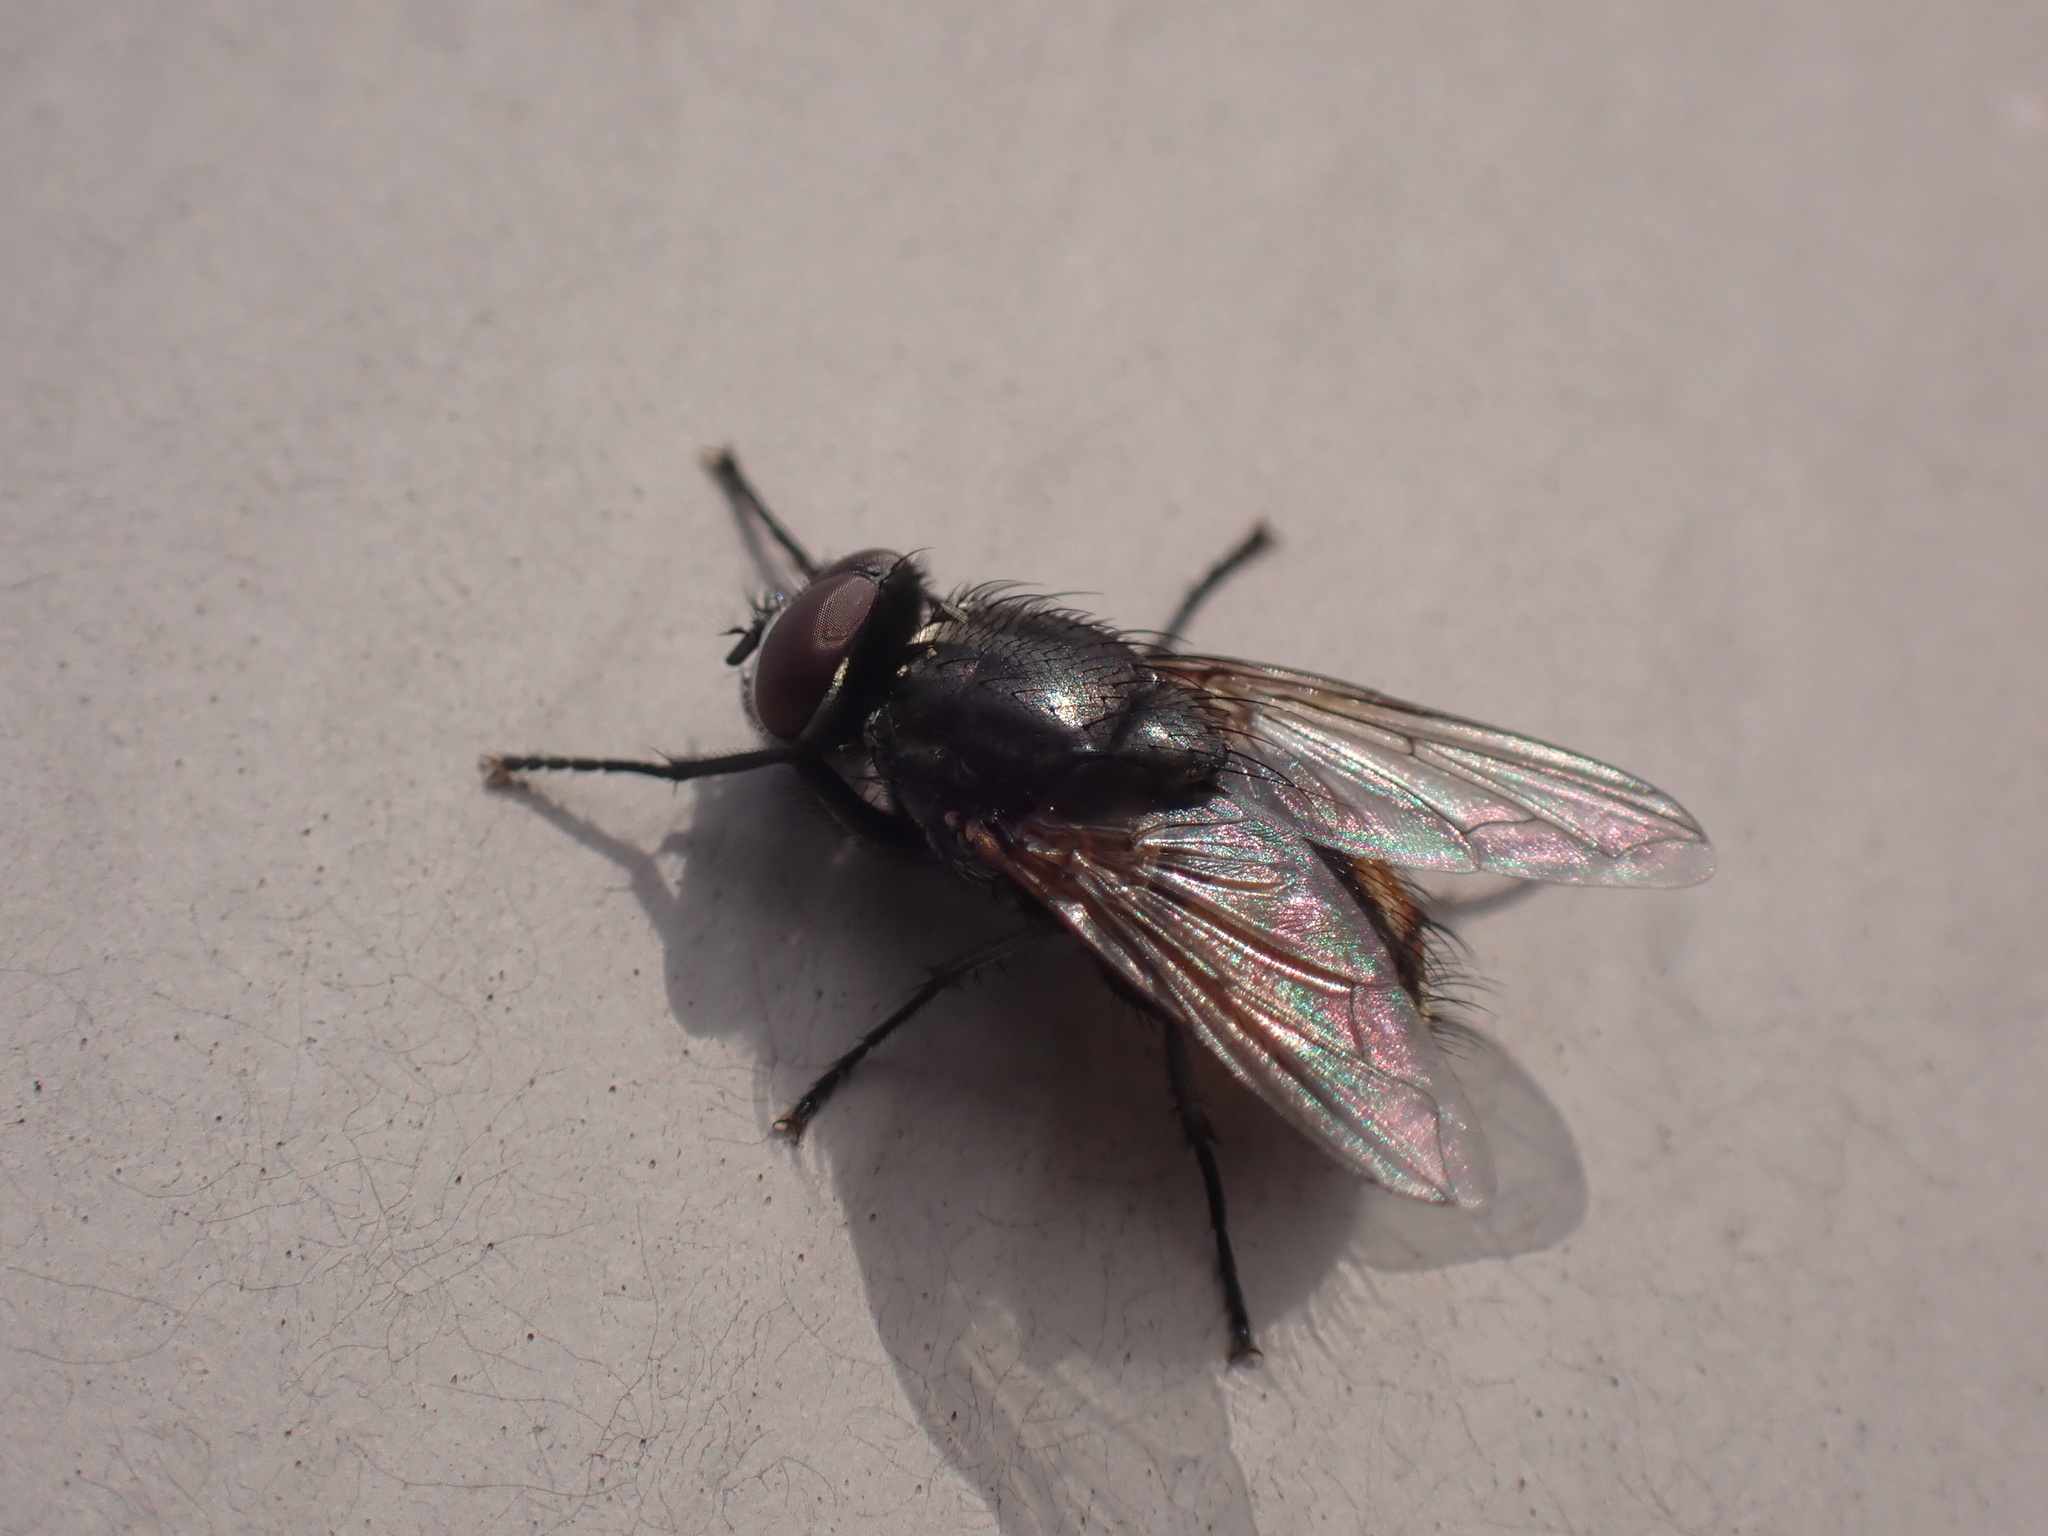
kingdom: Animalia
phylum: Arthropoda
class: Insecta
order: Diptera
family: Muscidae
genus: Musca
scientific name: Musca autumnalis
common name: Face fly
